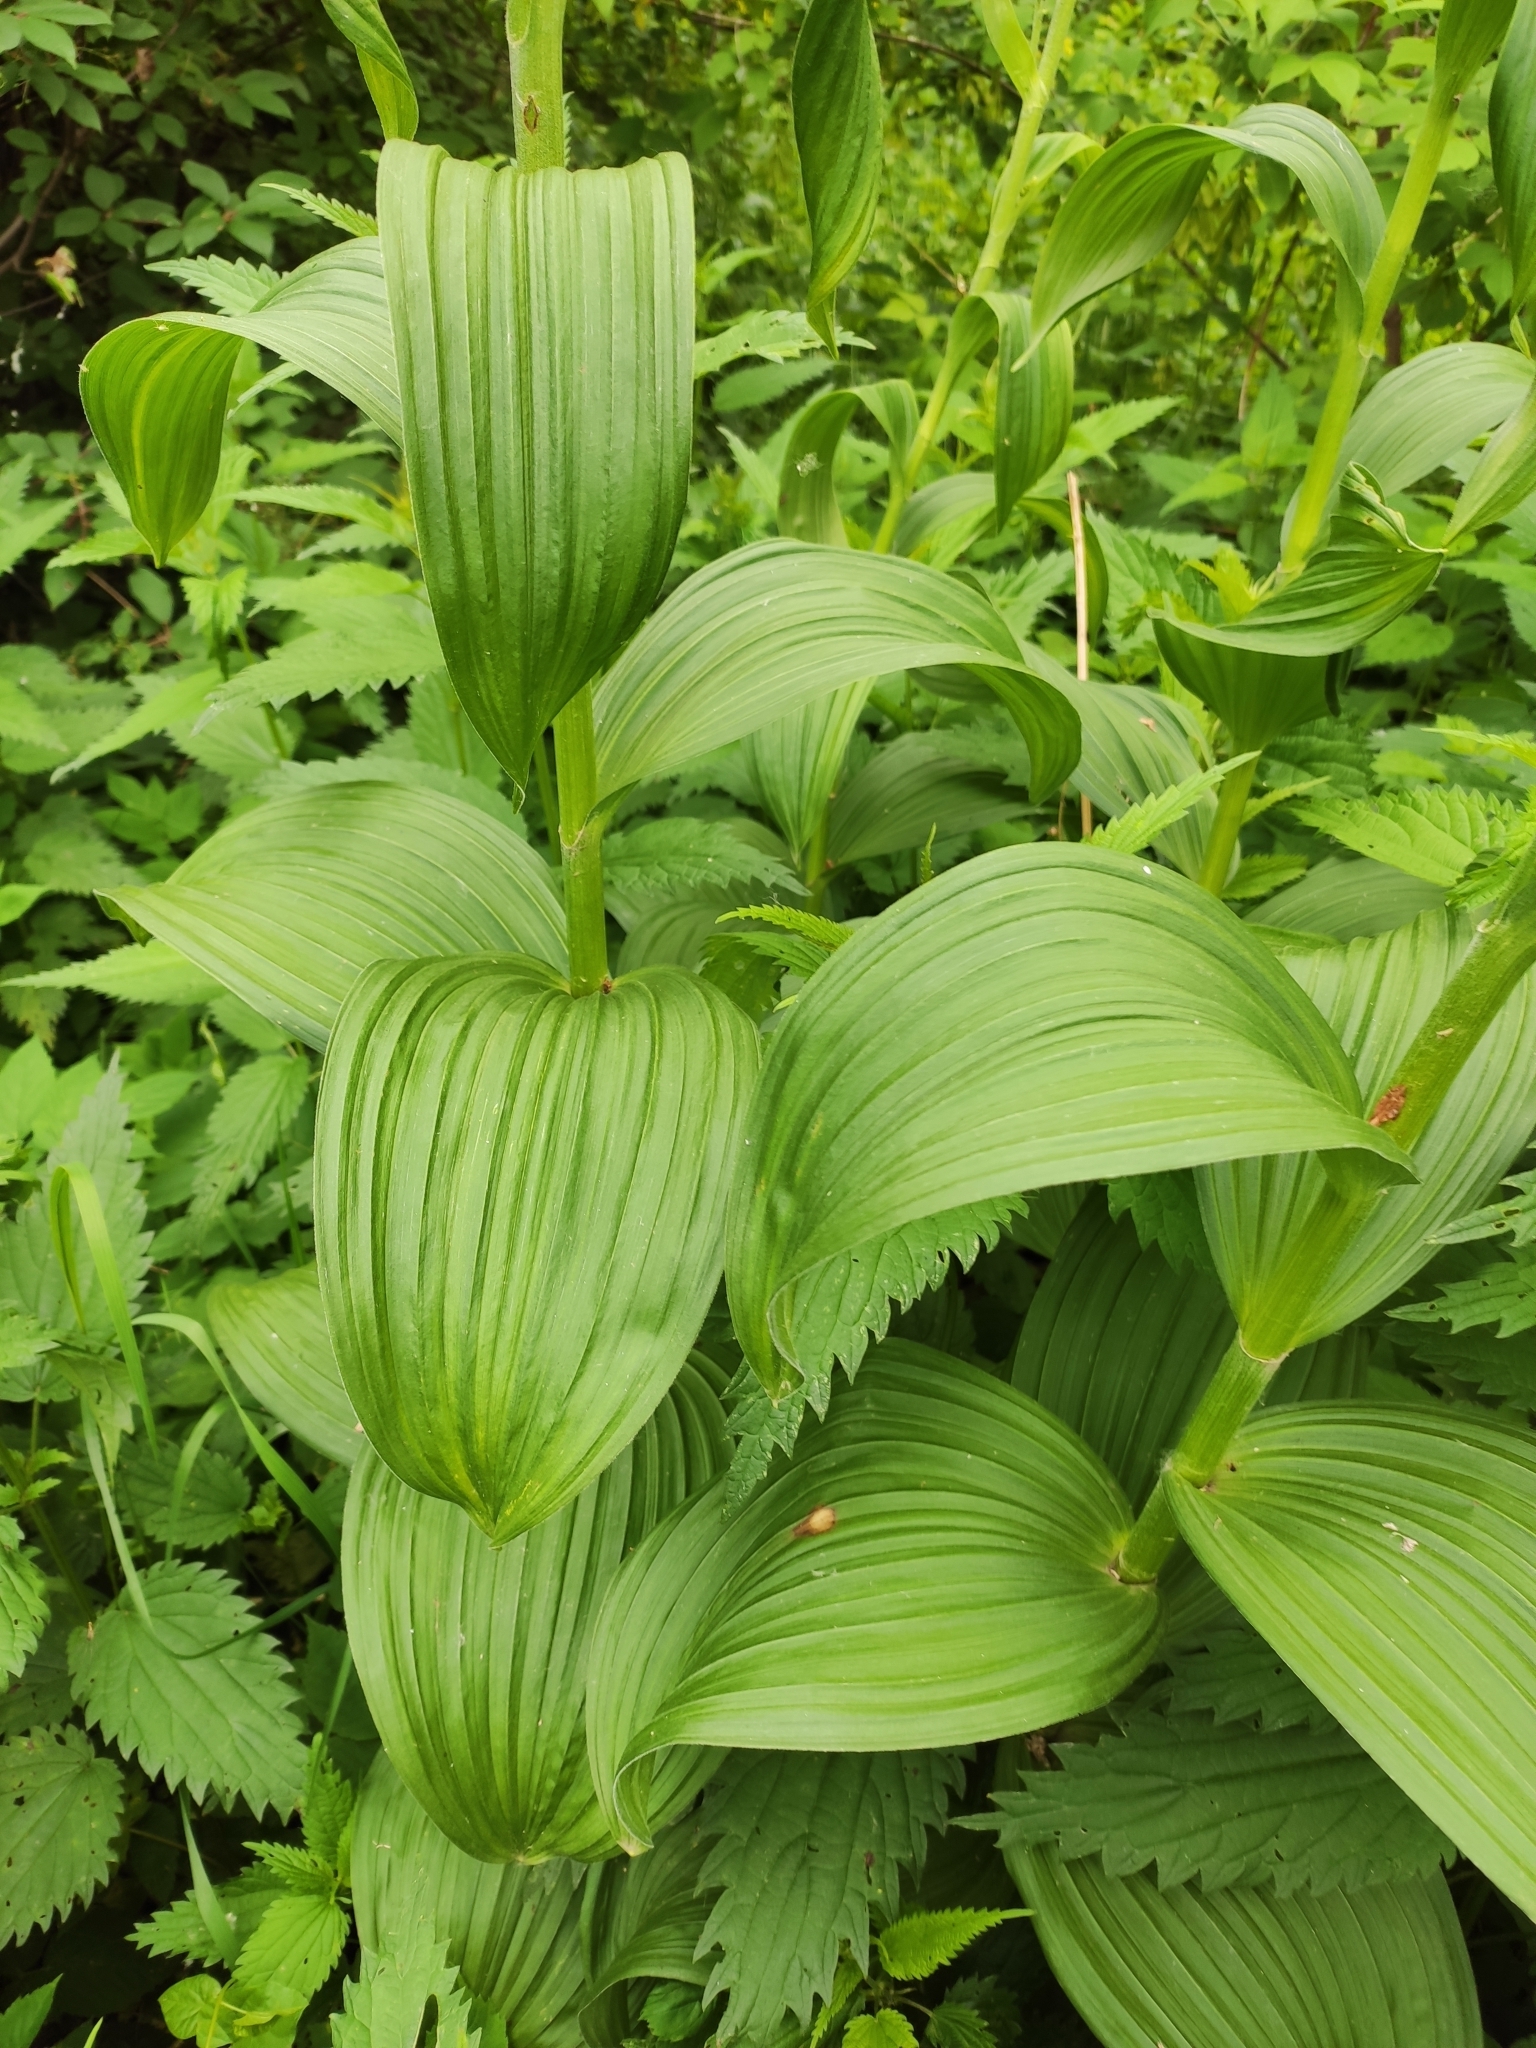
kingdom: Plantae
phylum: Tracheophyta
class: Liliopsida
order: Liliales
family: Melanthiaceae
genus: Veratrum
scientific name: Veratrum lobelianum
